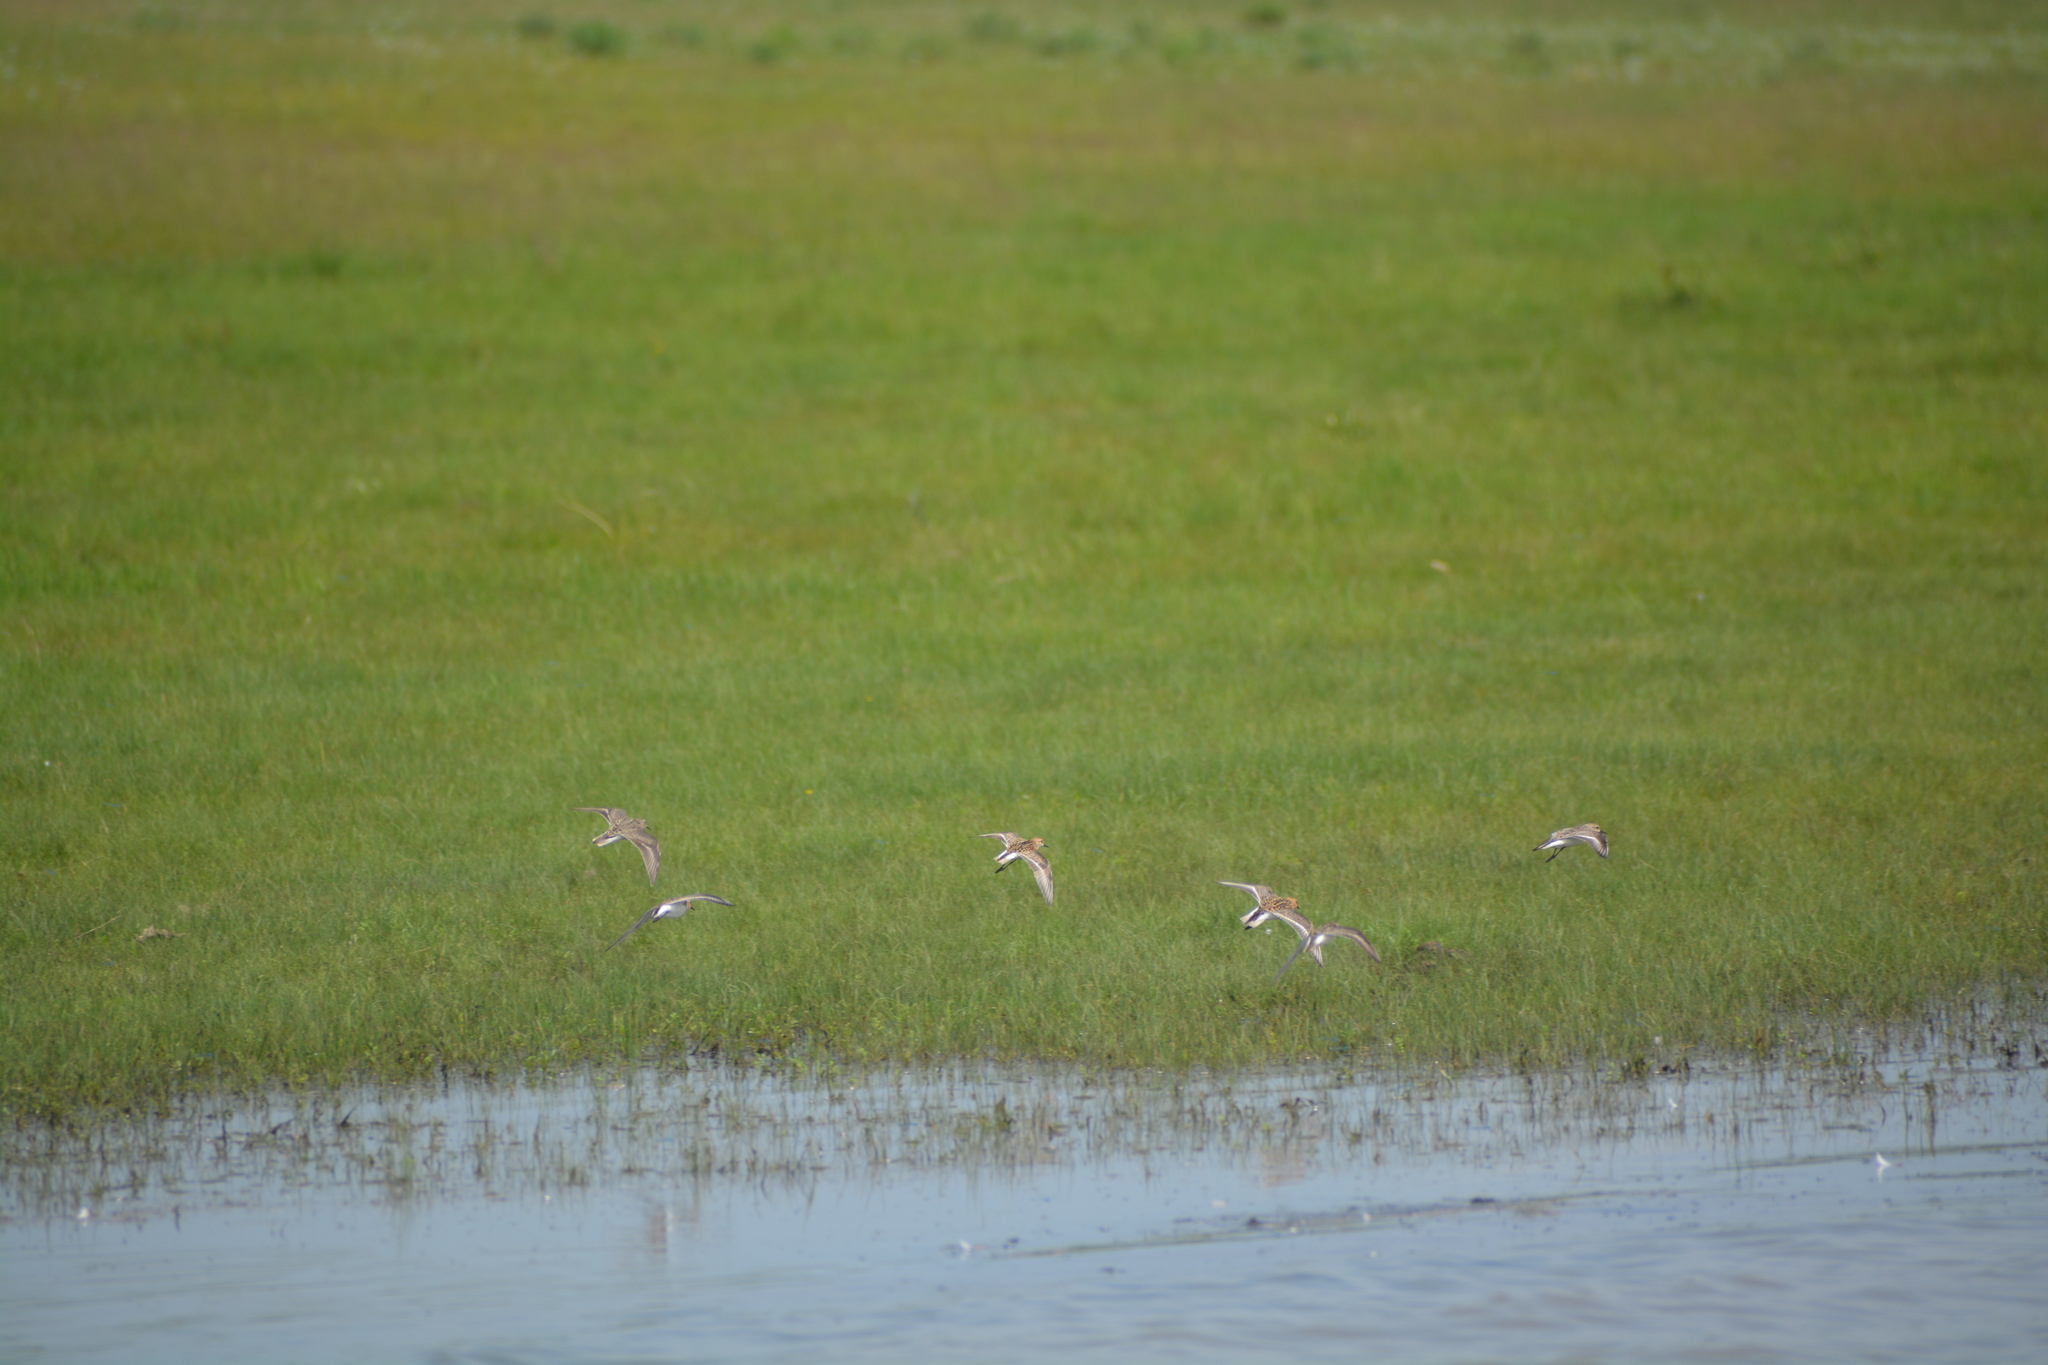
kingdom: Animalia
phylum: Chordata
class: Aves
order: Charadriiformes
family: Scolopacidae
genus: Calidris
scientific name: Calidris ruficollis
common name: Red-necked stint
